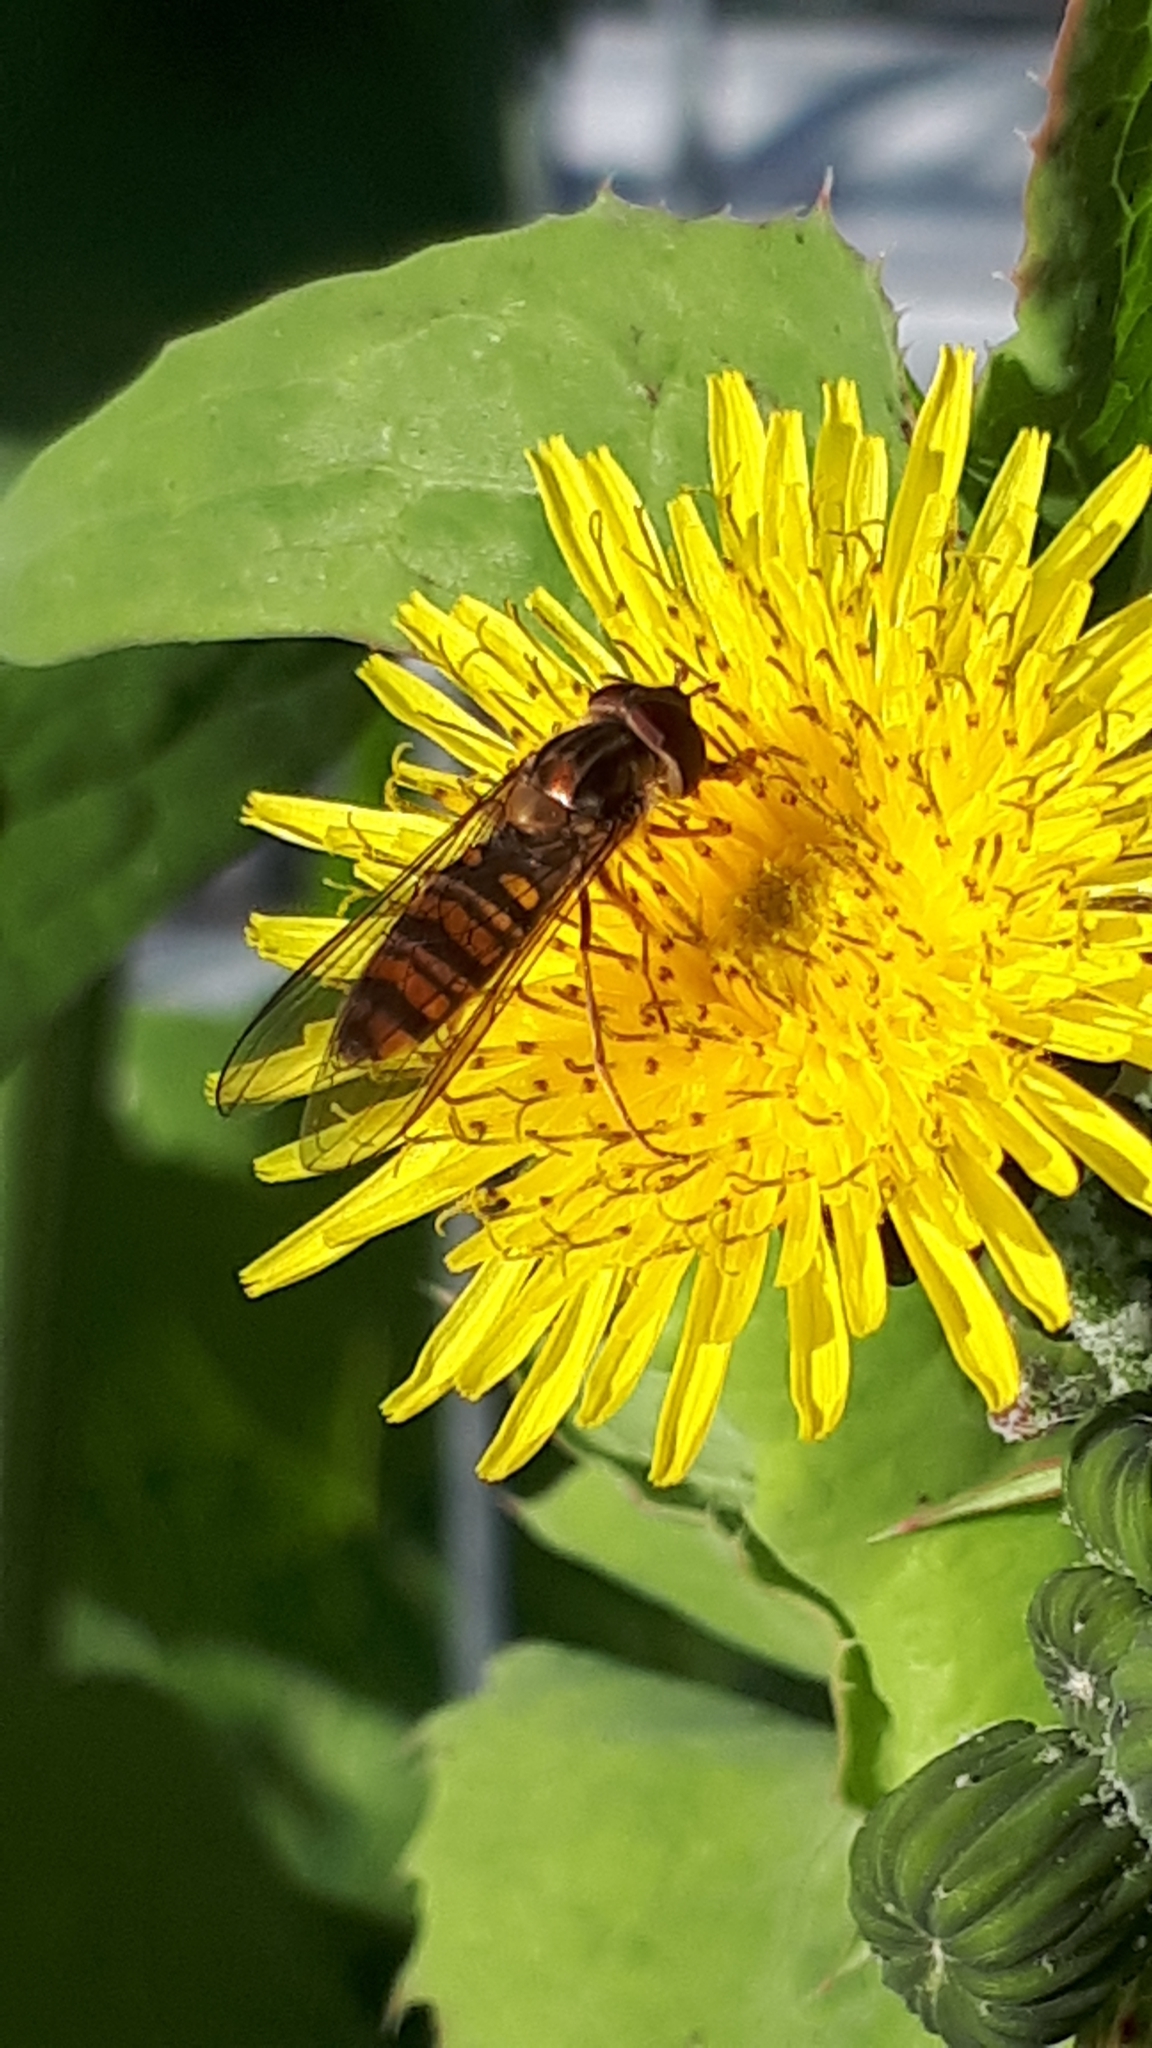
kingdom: Animalia
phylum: Arthropoda
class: Insecta
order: Diptera
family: Syrphidae
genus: Episyrphus
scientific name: Episyrphus balteatus
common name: Marmalade hoverfly
